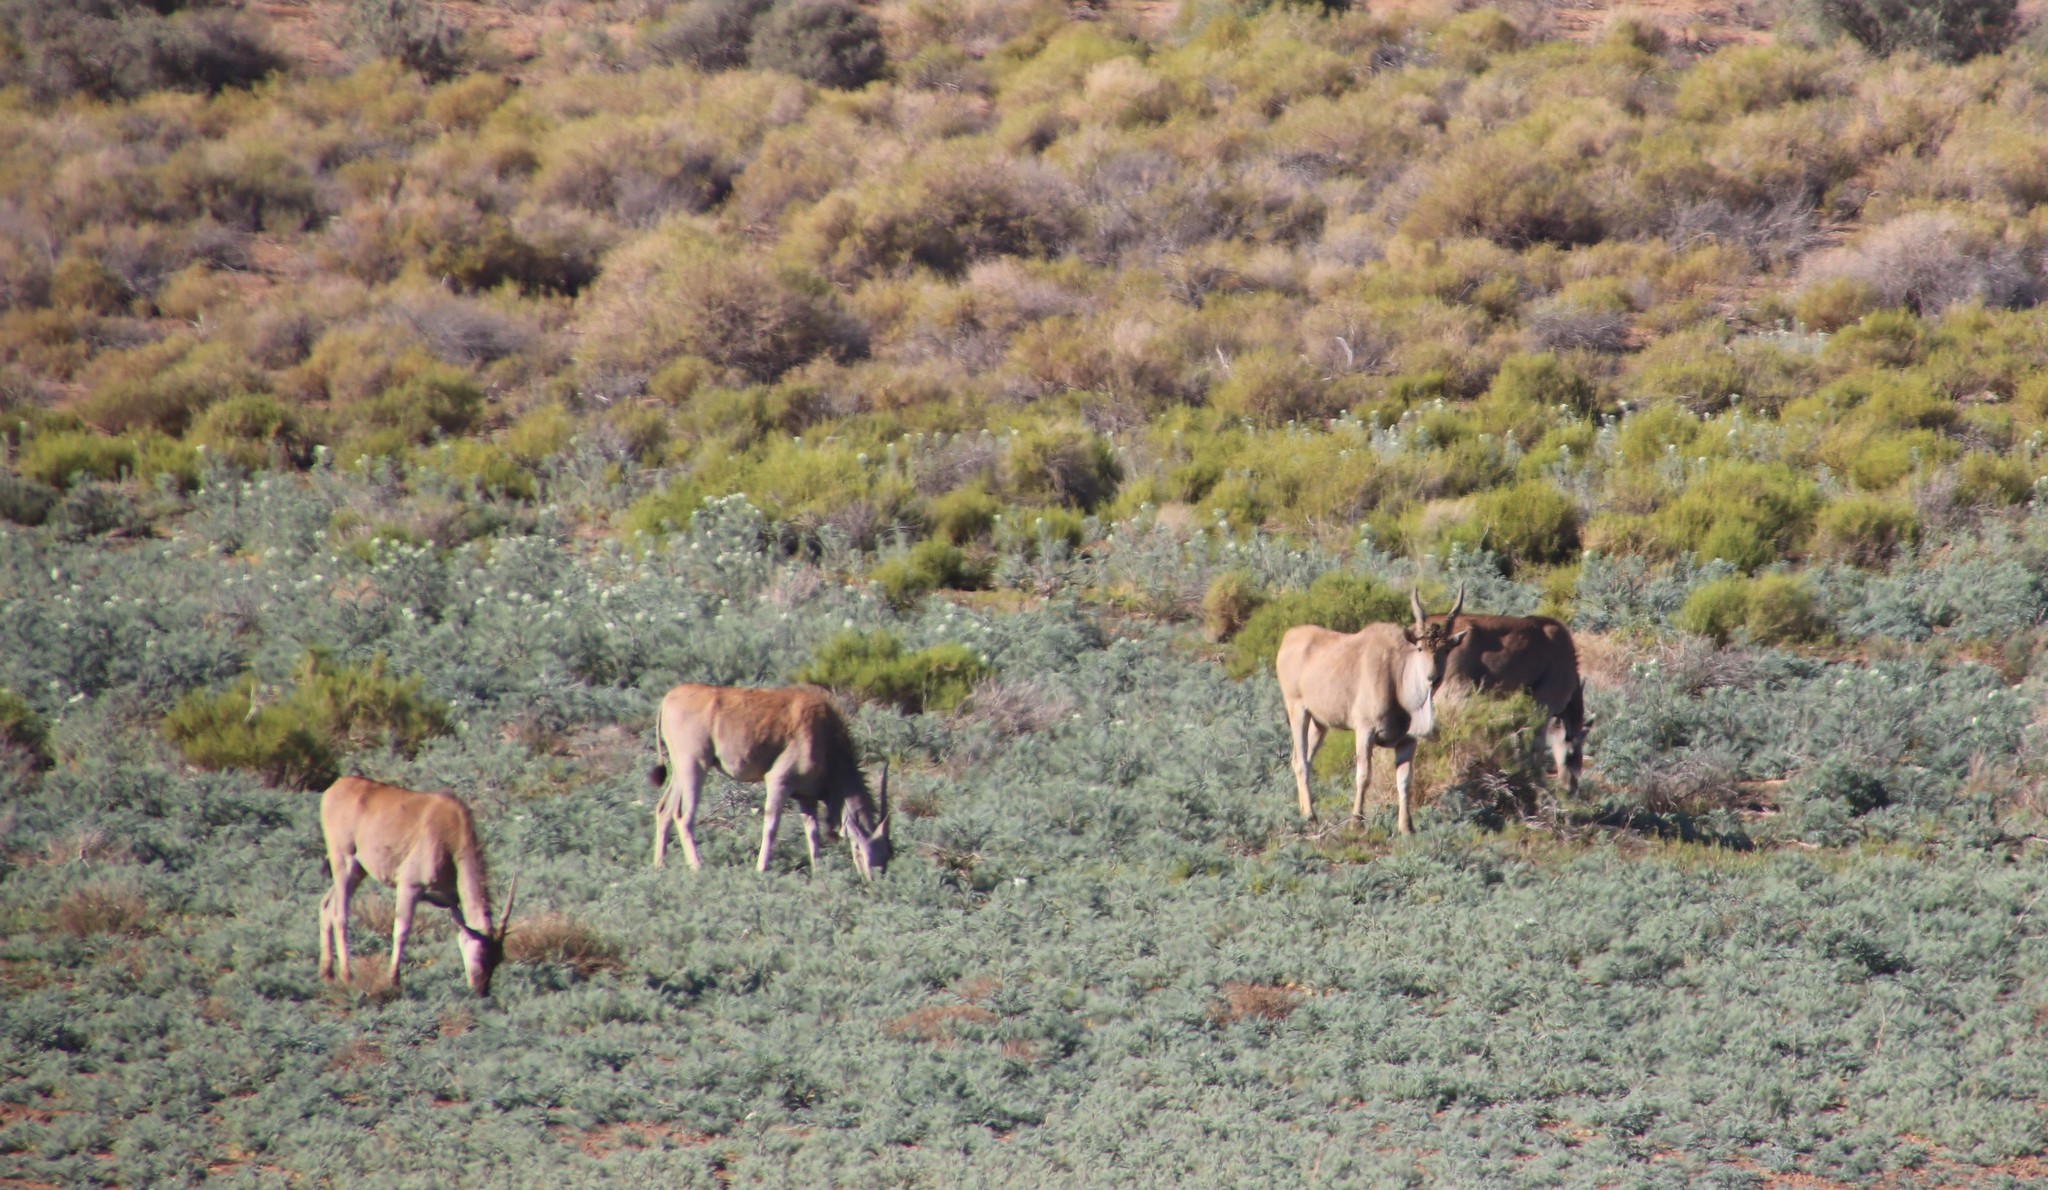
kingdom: Animalia
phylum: Chordata
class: Mammalia
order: Artiodactyla
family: Bovidae
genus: Taurotragus
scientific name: Taurotragus oryx
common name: Common eland
